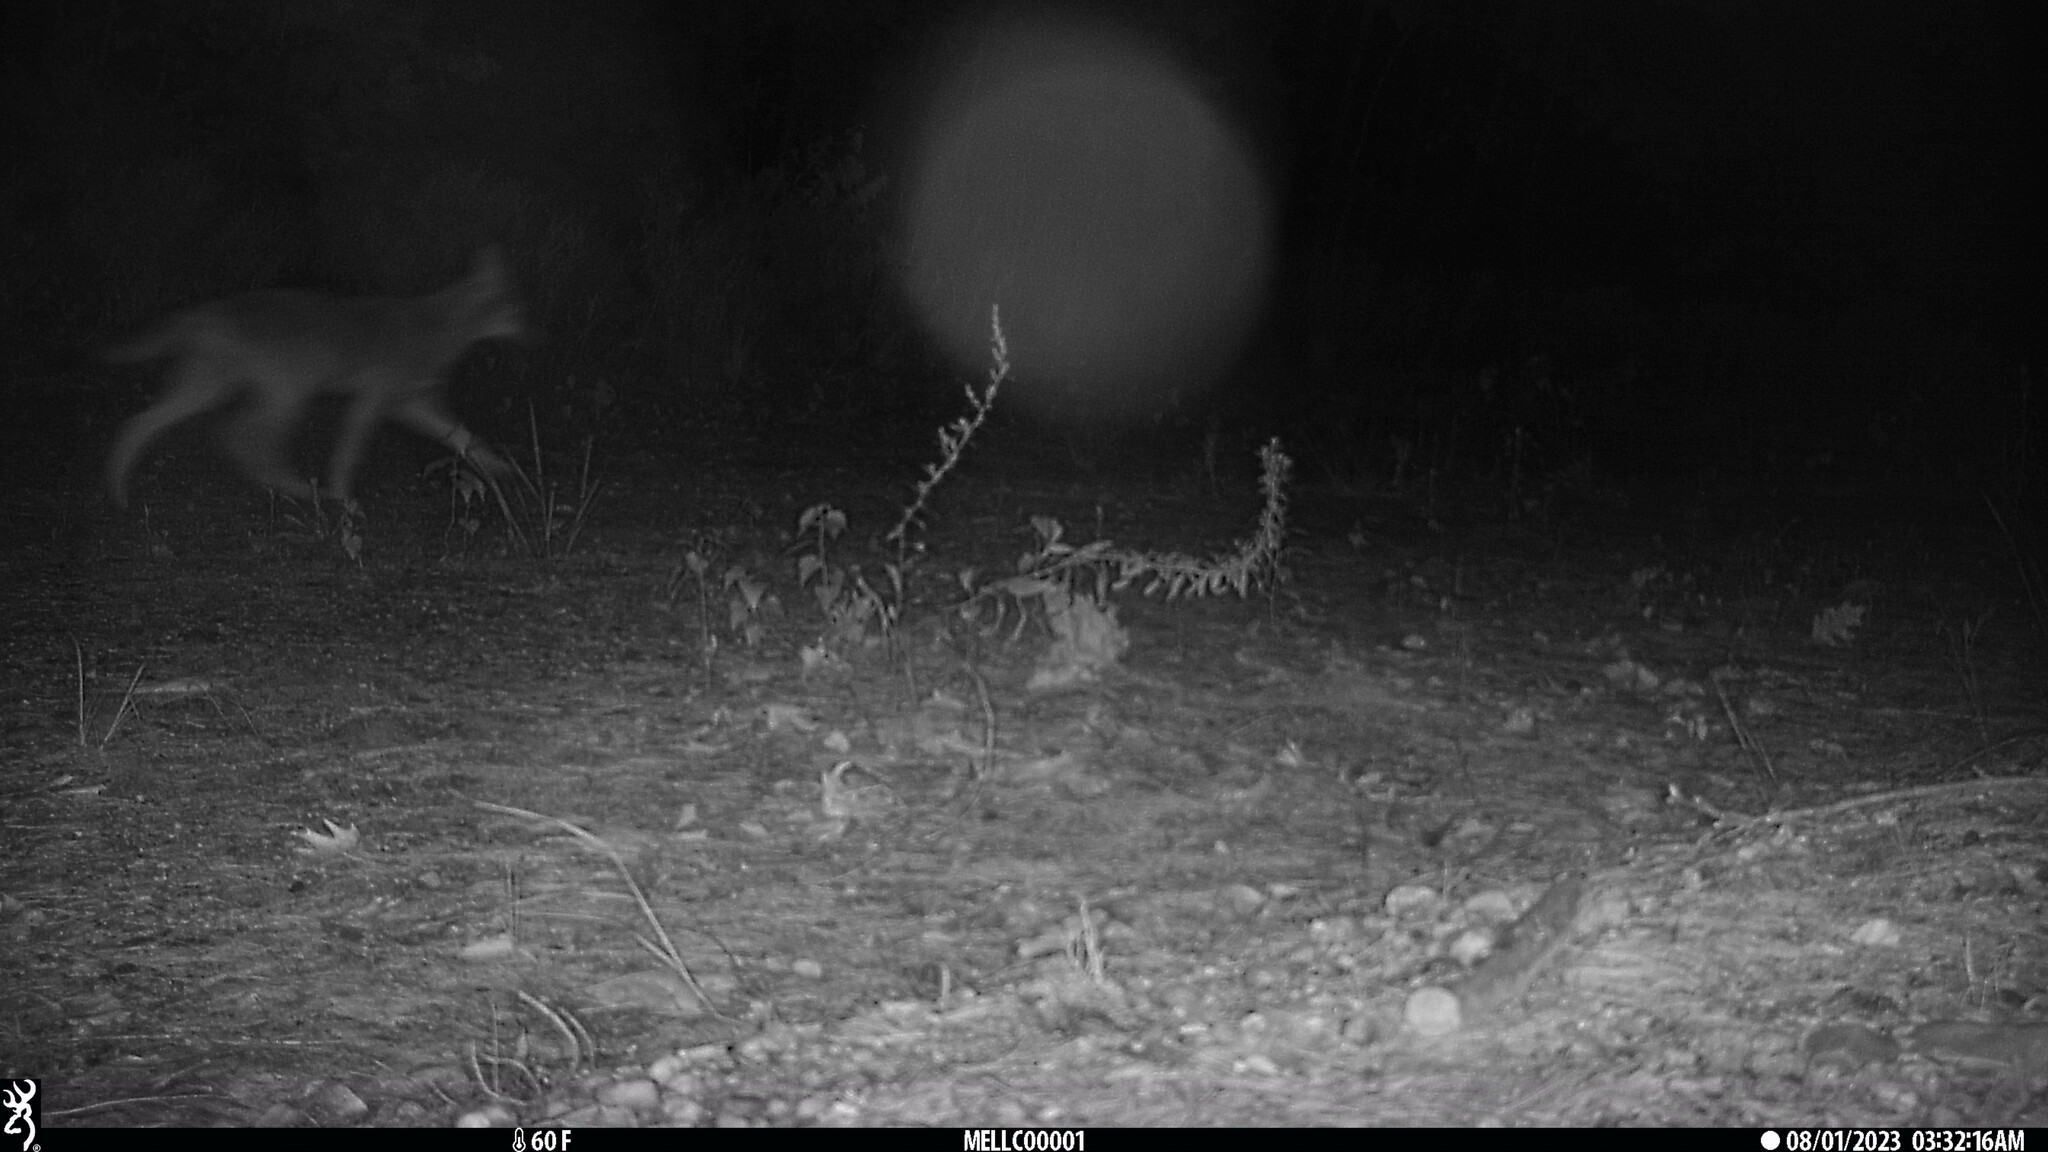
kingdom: Animalia
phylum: Chordata
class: Mammalia
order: Carnivora
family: Canidae
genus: Canis
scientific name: Canis latrans
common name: Coyote
